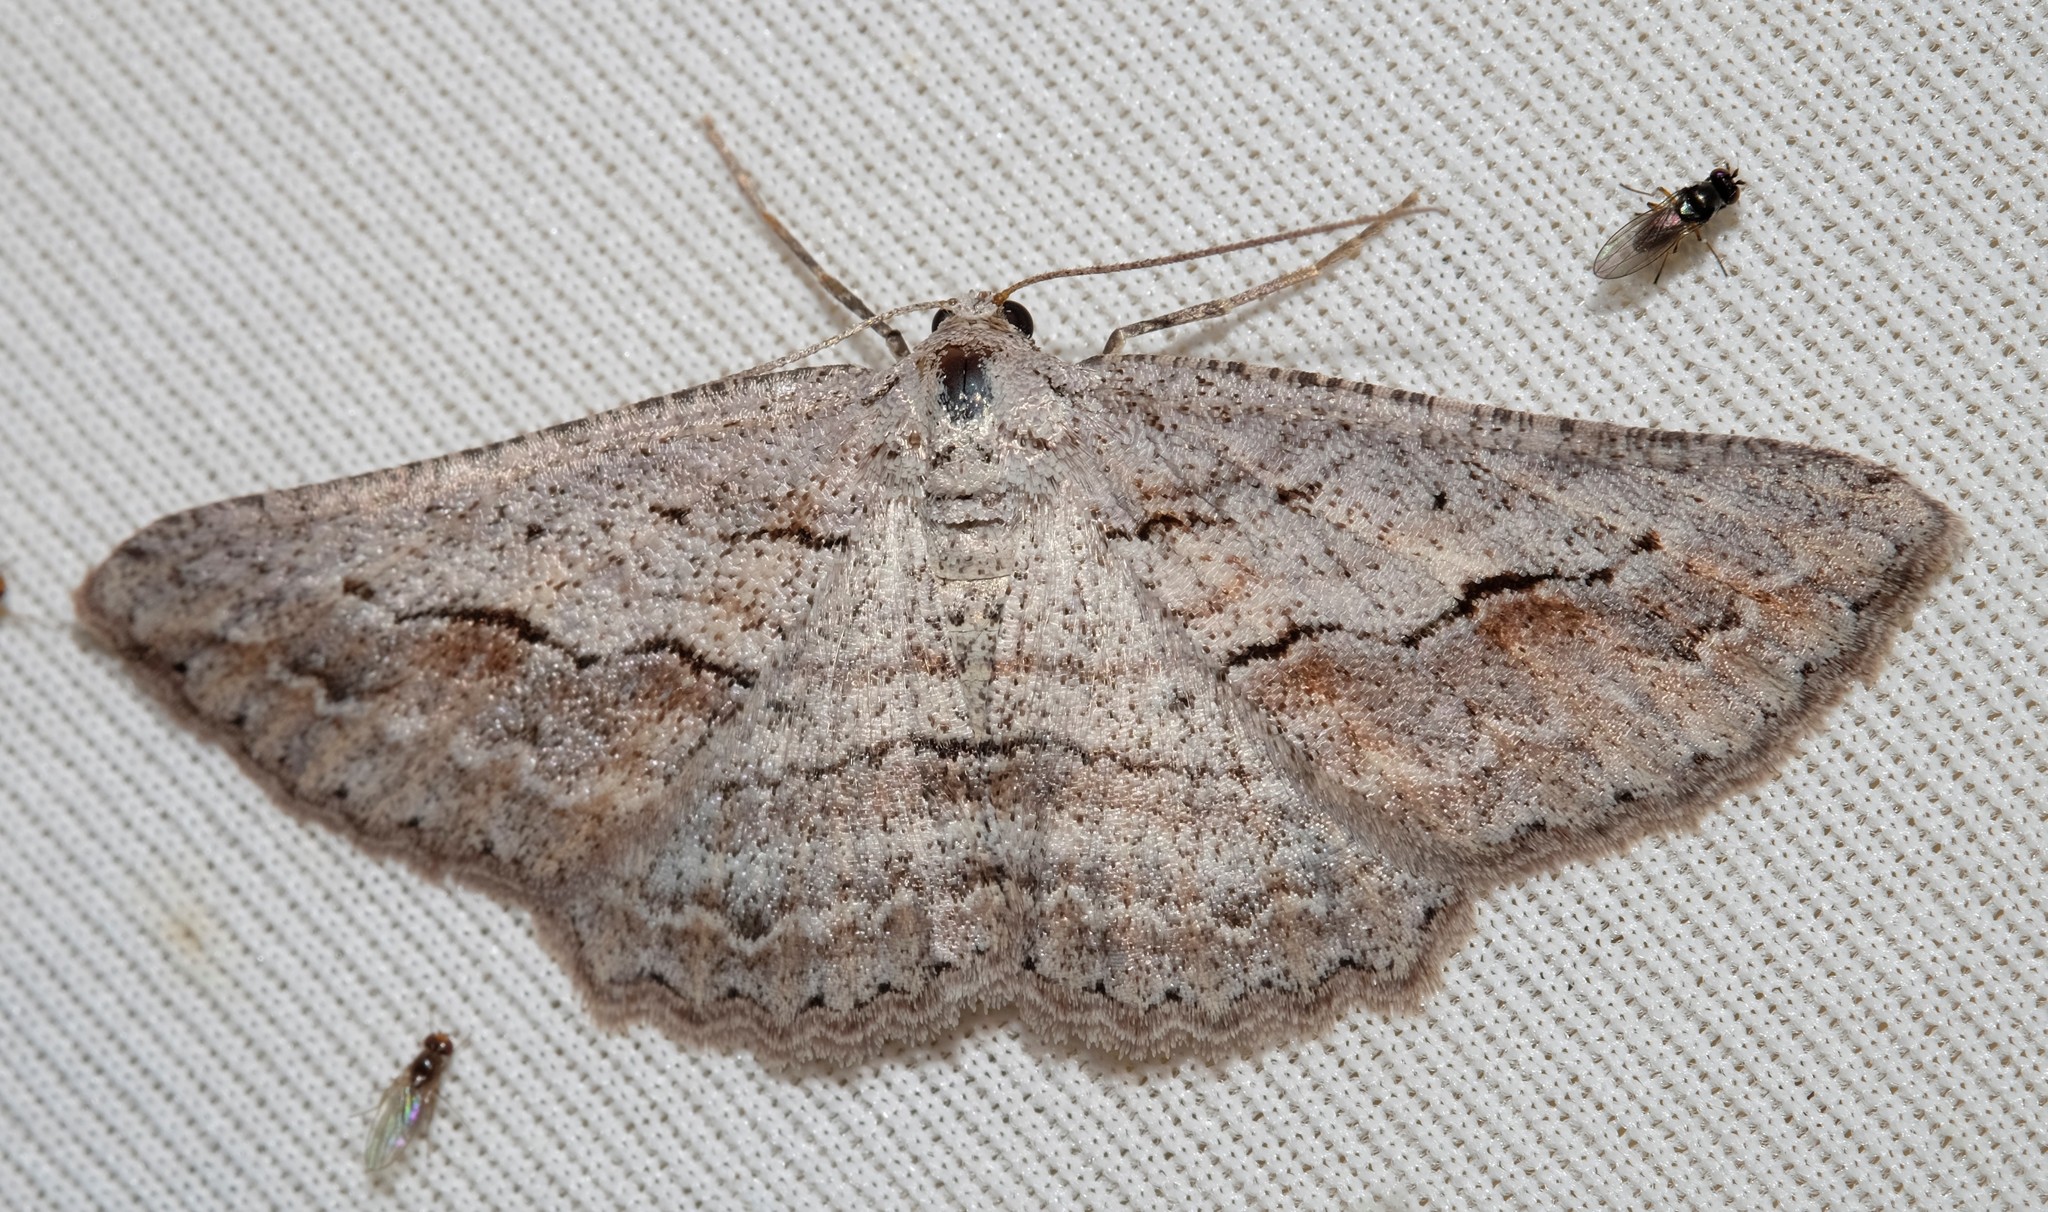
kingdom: Animalia
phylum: Arthropoda
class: Insecta
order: Lepidoptera
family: Geometridae
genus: Syneora
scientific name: Syneora mundifera
